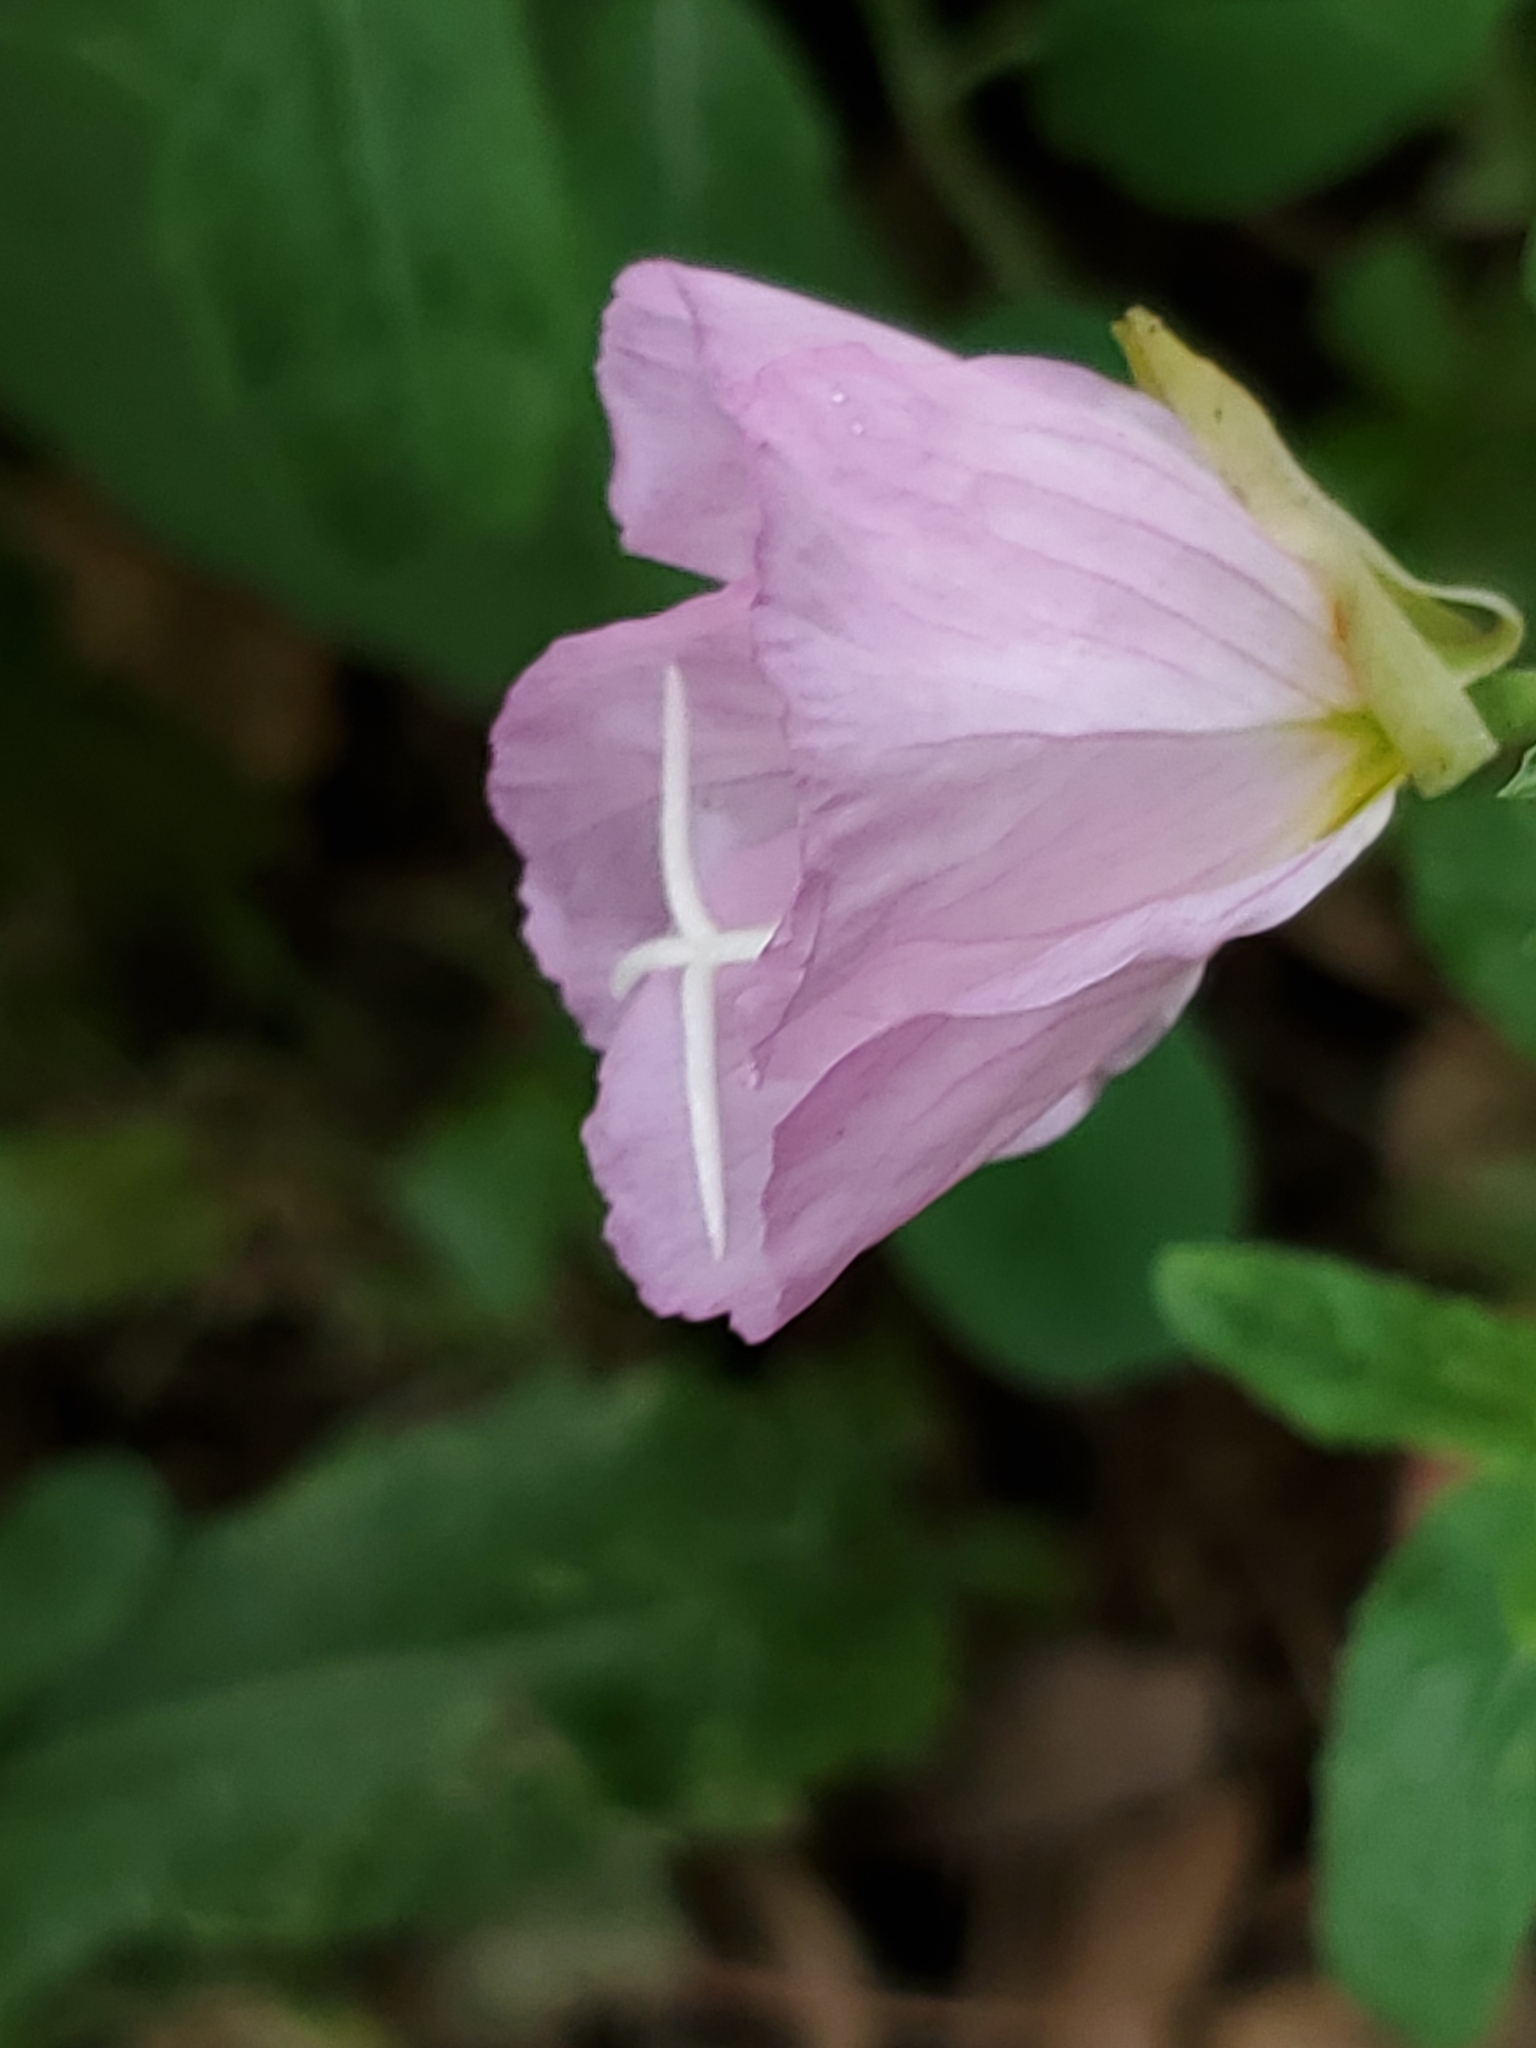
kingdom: Plantae
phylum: Tracheophyta
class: Magnoliopsida
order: Myrtales
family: Onagraceae
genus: Oenothera
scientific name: Oenothera speciosa
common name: White evening-primrose
